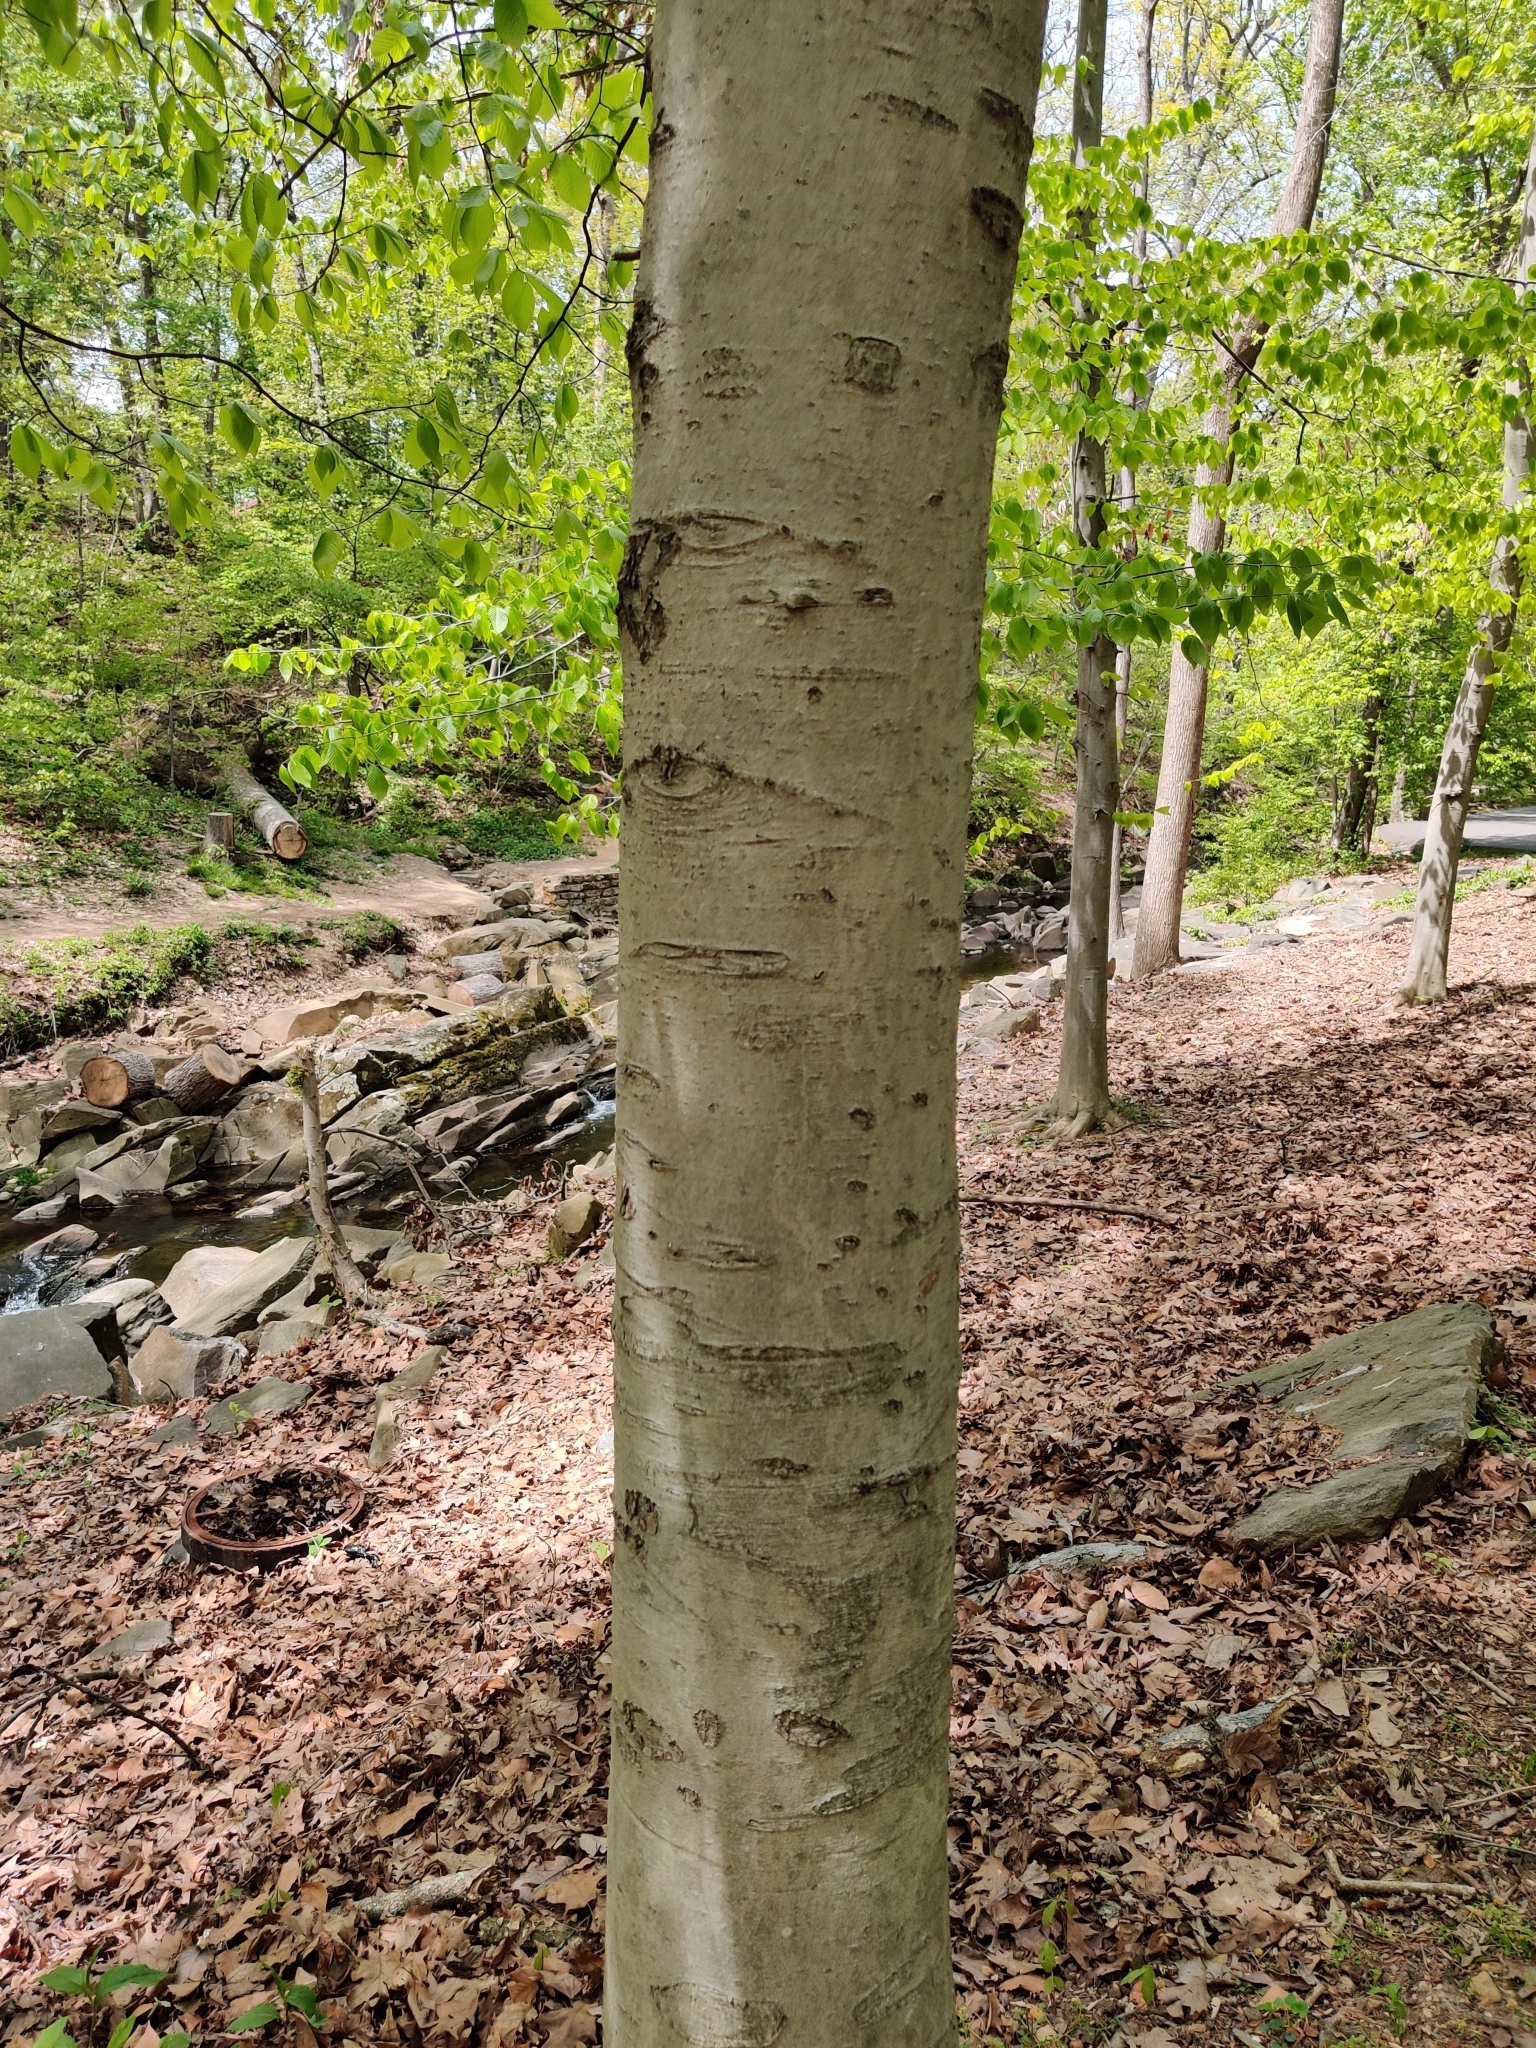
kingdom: Plantae
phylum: Tracheophyta
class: Magnoliopsida
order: Fagales
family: Fagaceae
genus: Fagus
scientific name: Fagus grandifolia
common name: American beech
